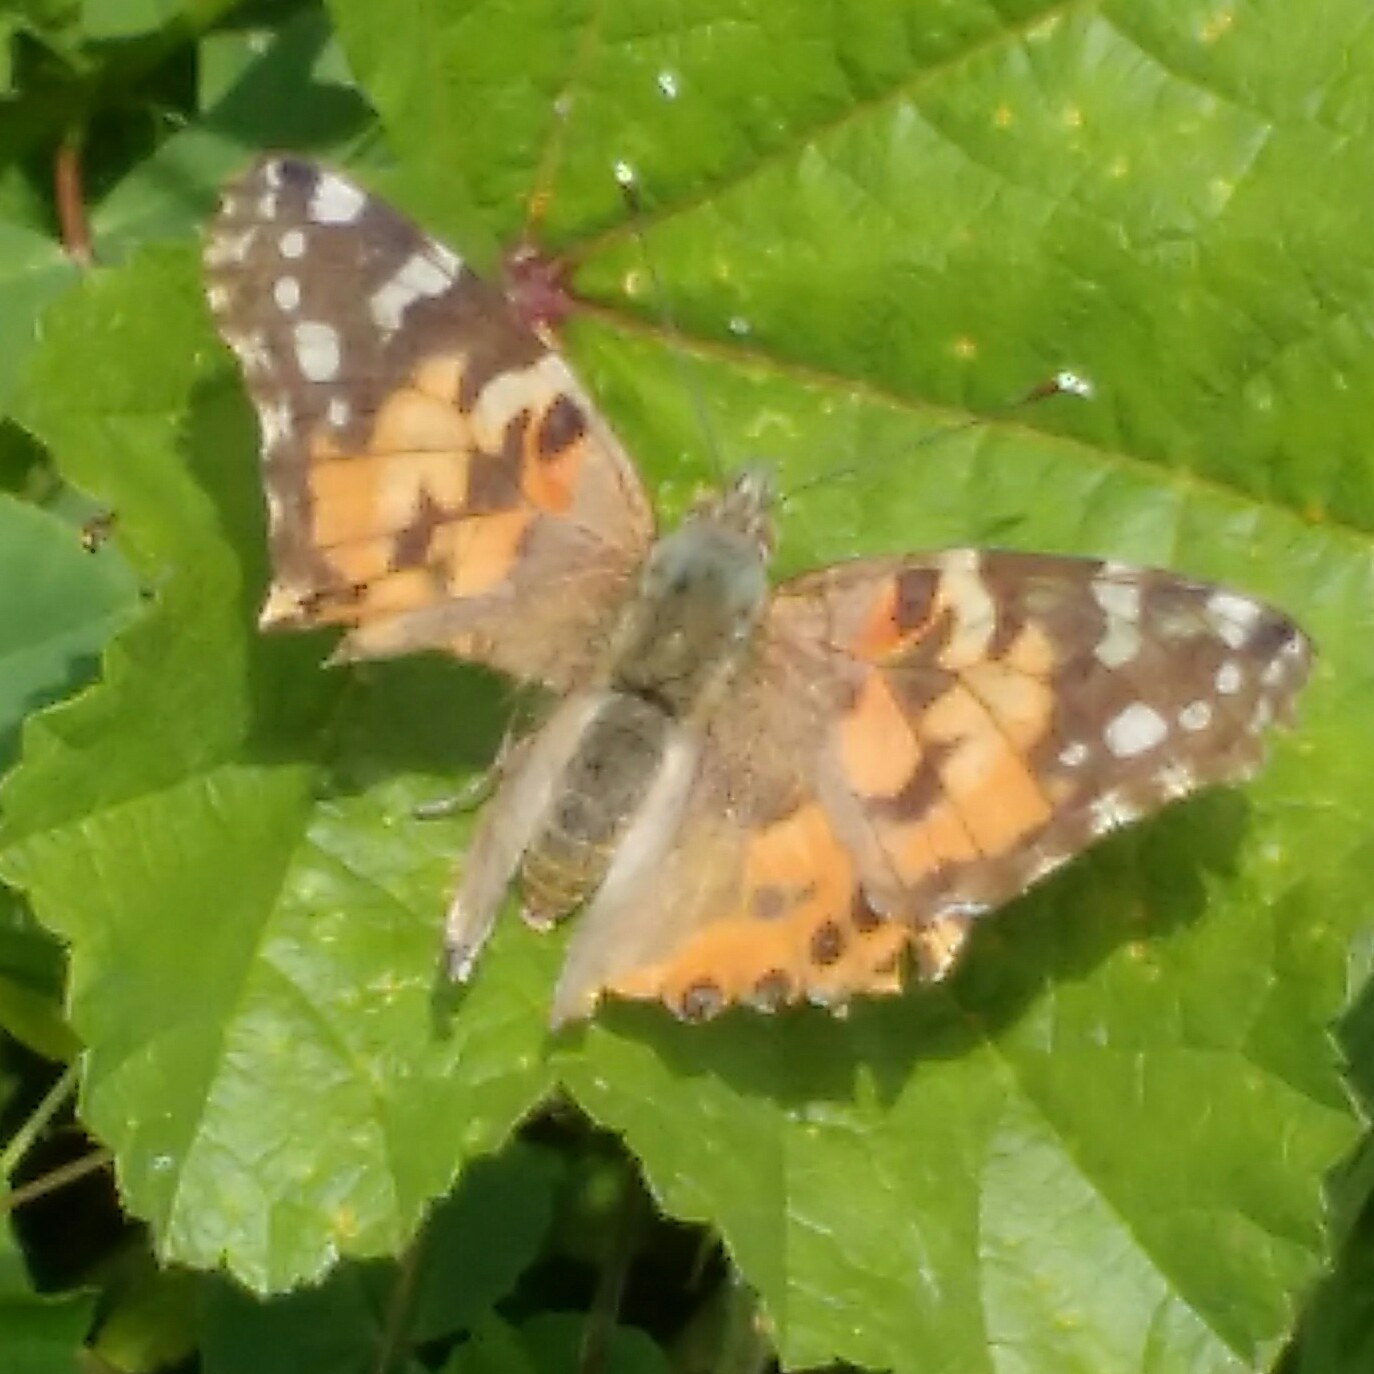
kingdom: Animalia
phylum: Arthropoda
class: Insecta
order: Lepidoptera
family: Nymphalidae
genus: Vanessa
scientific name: Vanessa cardui
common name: Painted lady
